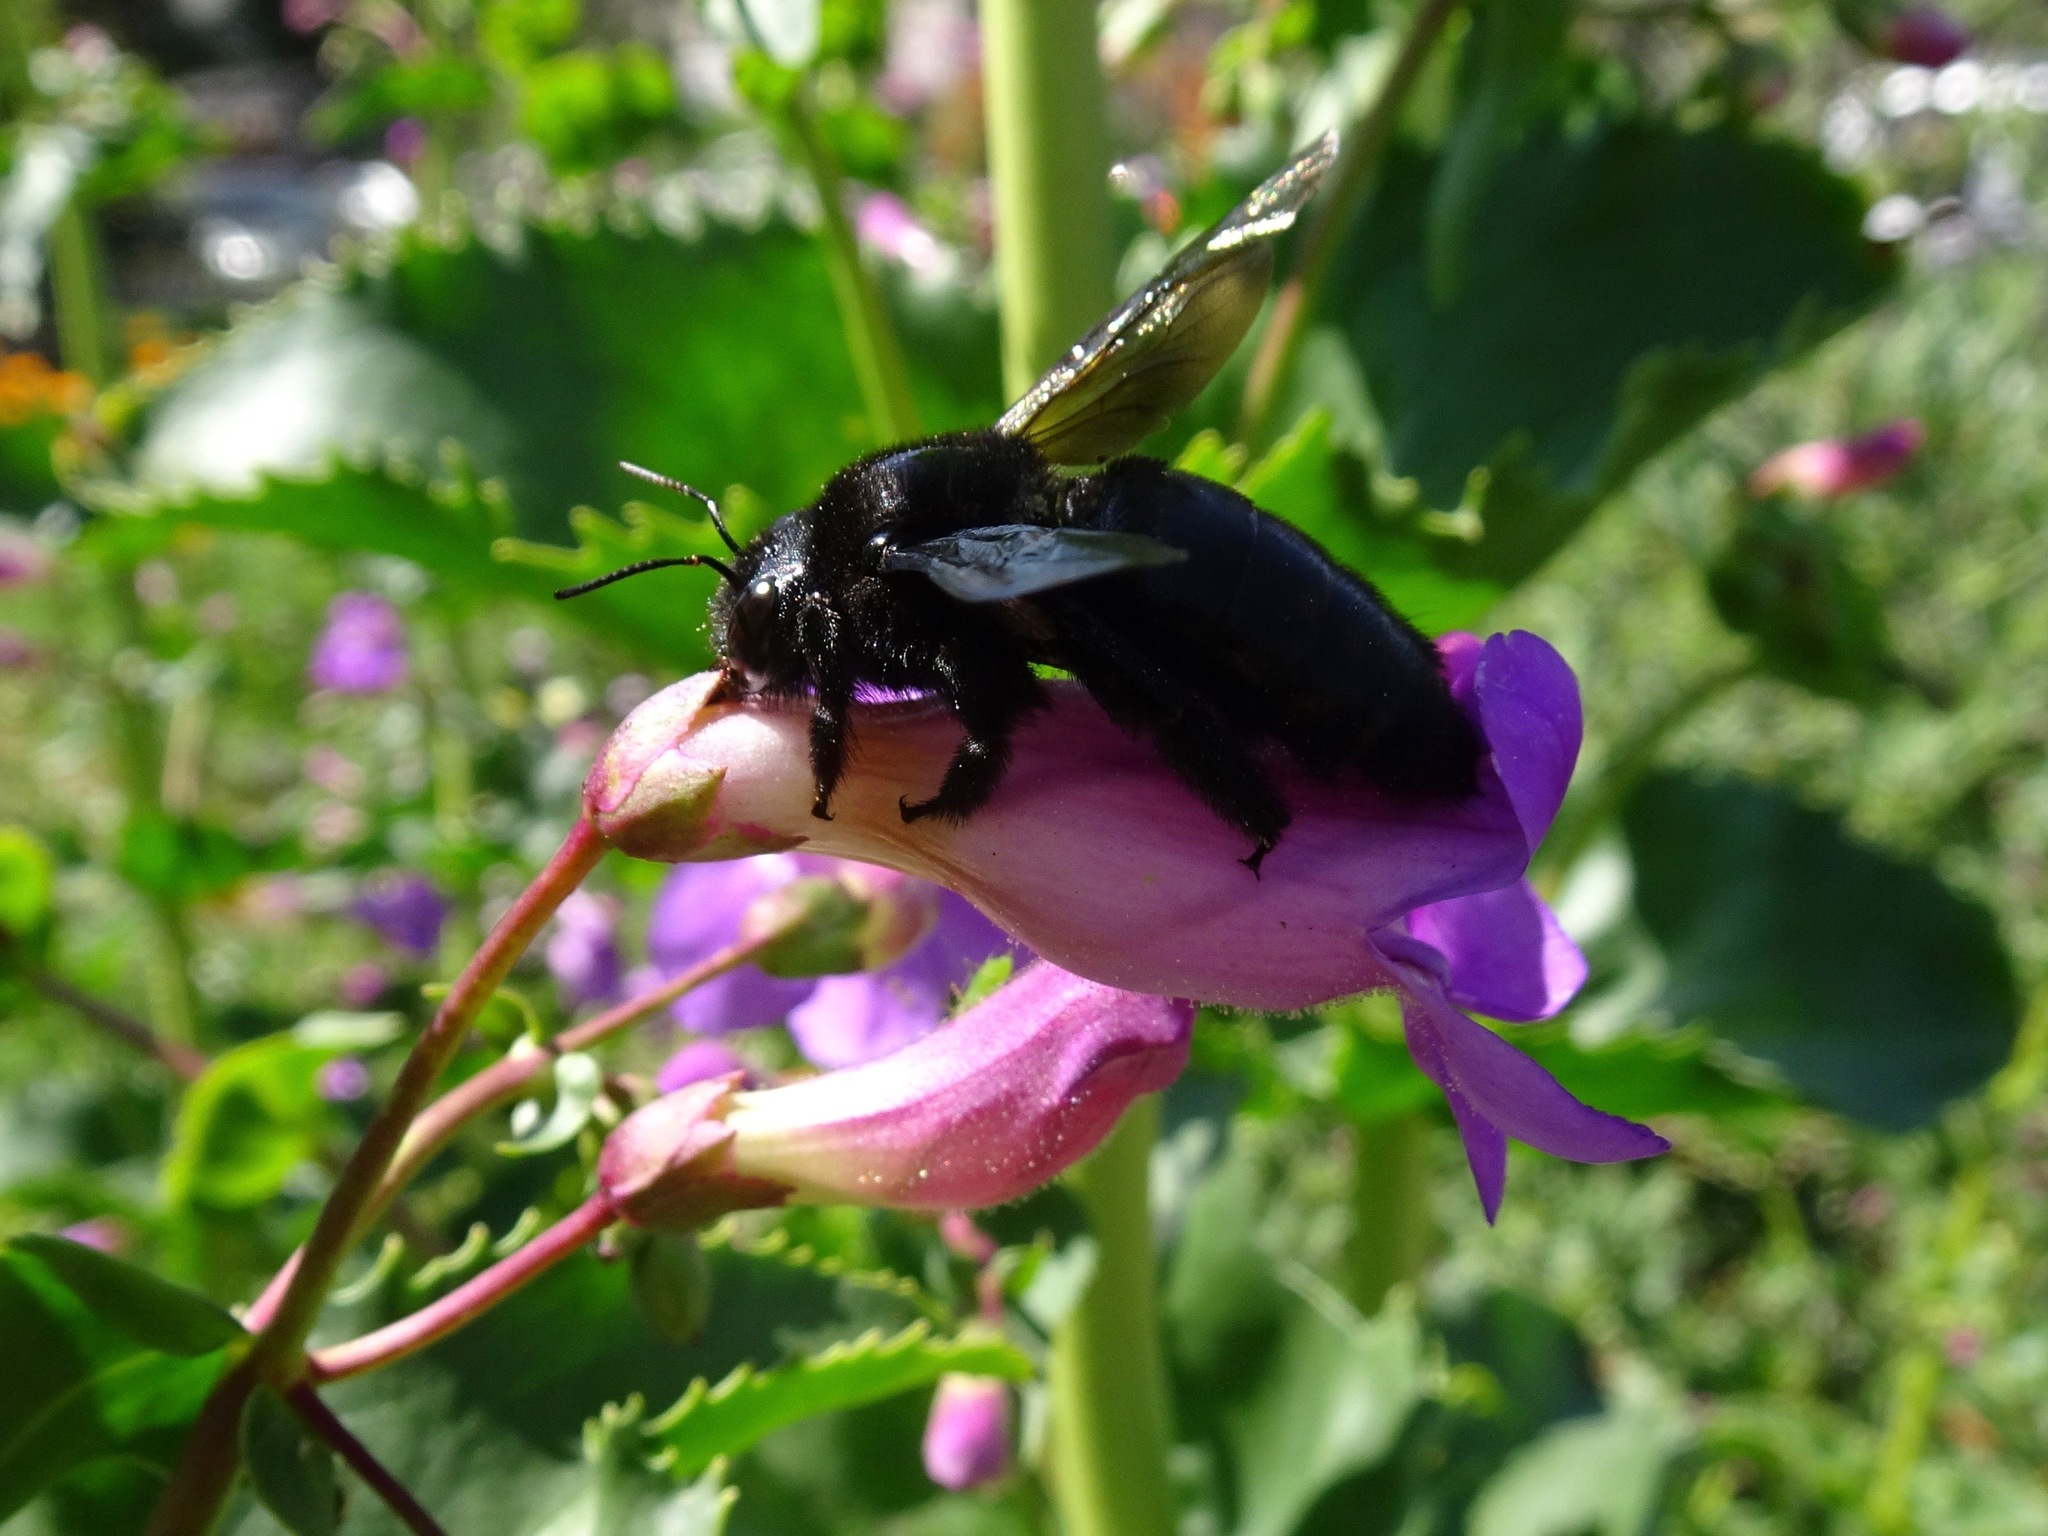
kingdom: Animalia
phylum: Arthropoda
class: Insecta
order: Hymenoptera
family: Apidae
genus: Xylocopa
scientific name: Xylocopa sonorina
